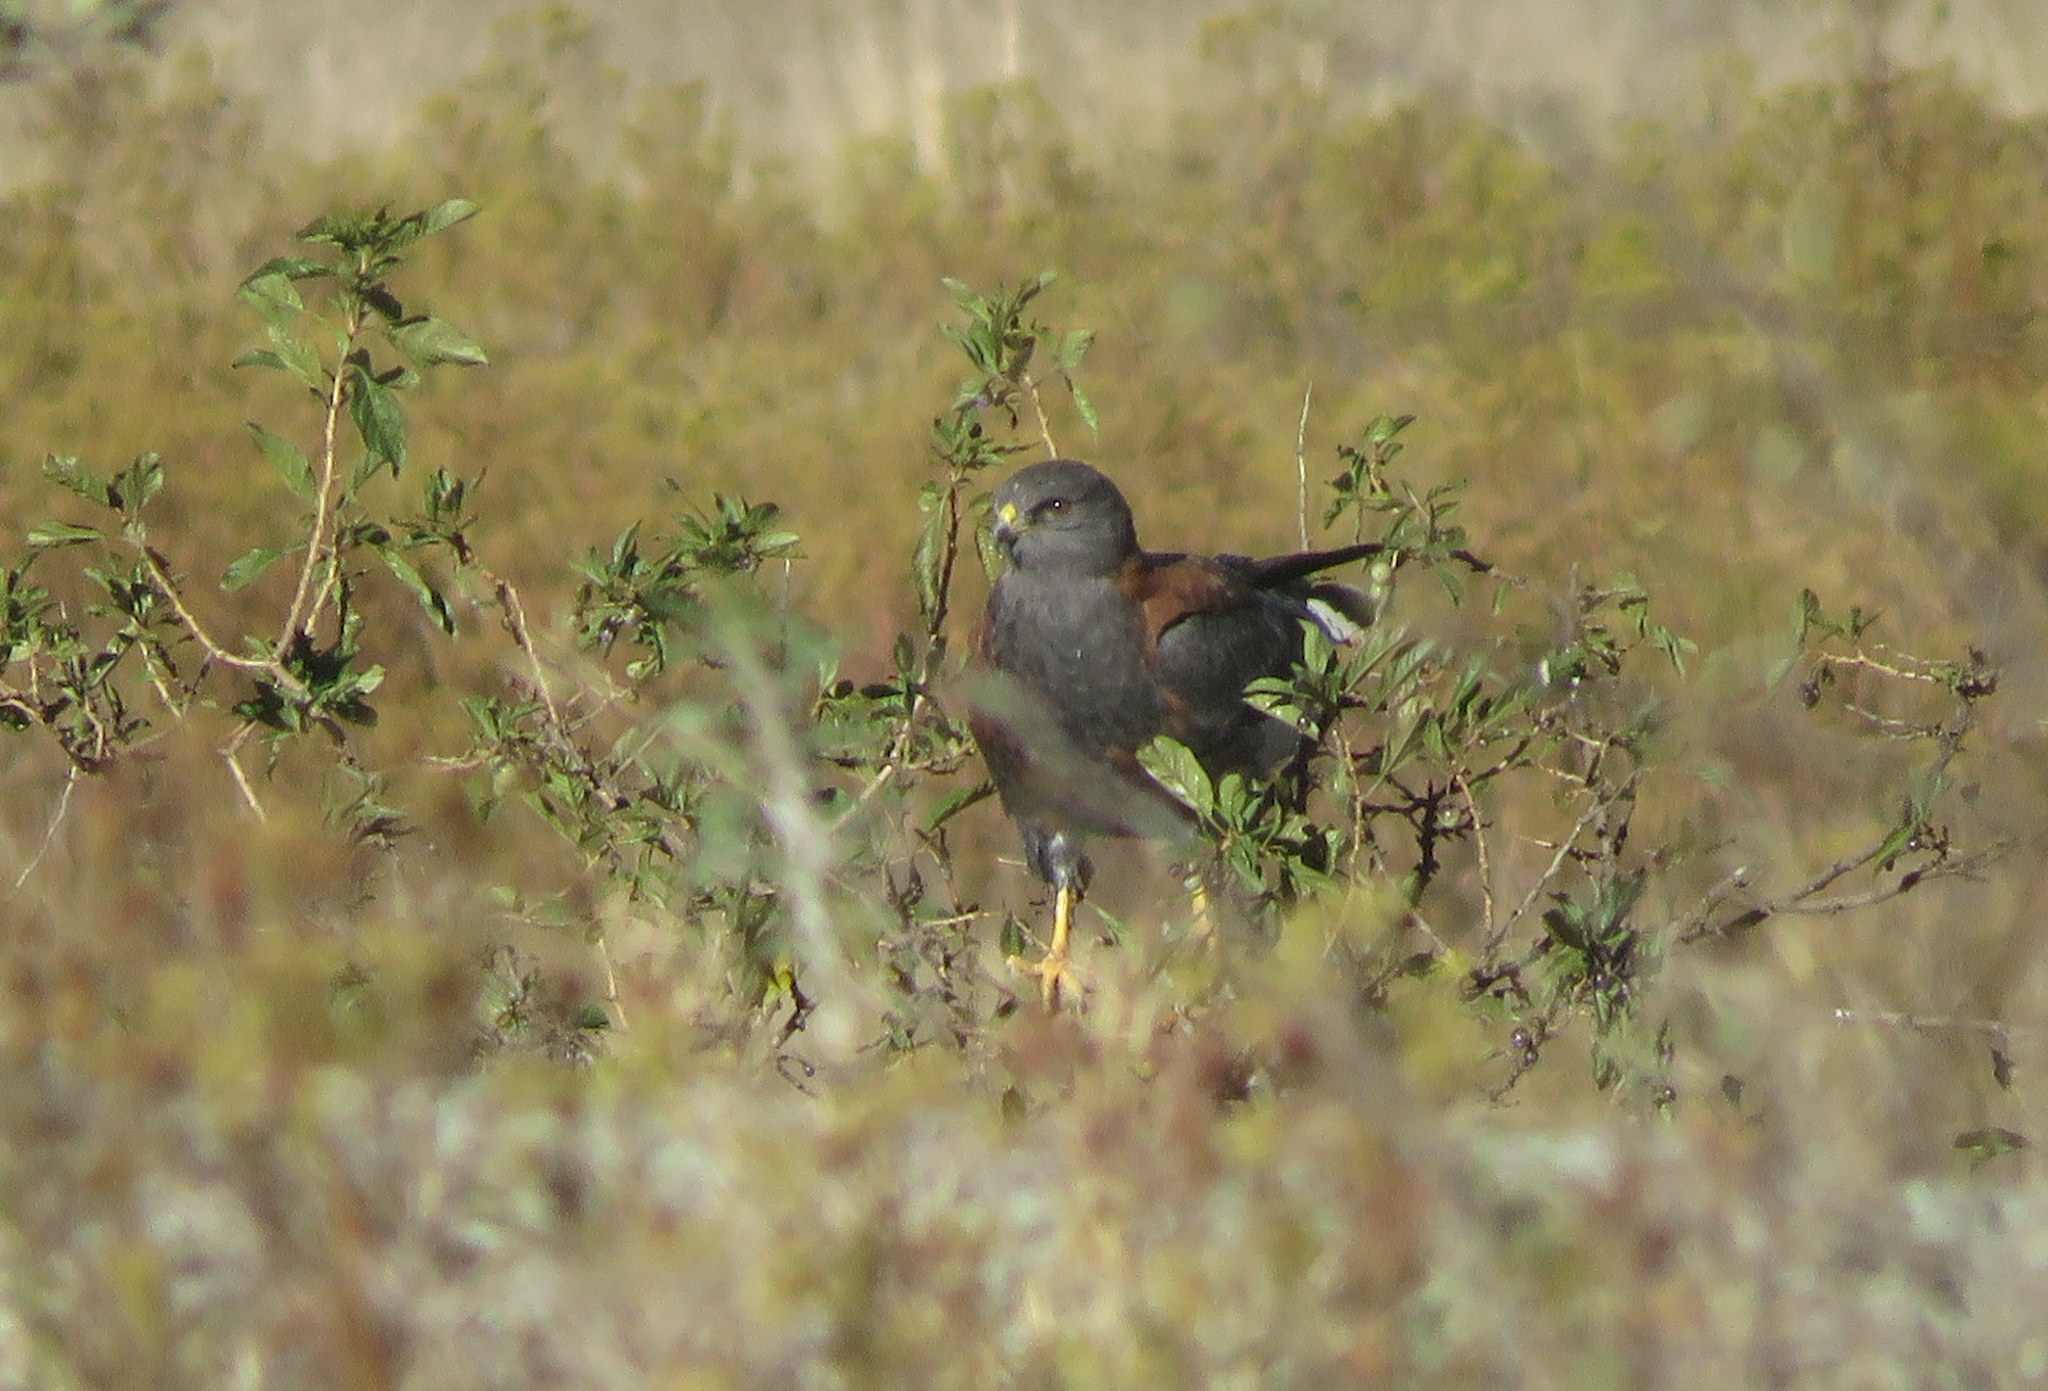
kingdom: Animalia
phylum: Chordata
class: Aves
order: Accipitriformes
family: Accipitridae
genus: Buteo
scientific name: Buteo polyosoma
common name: Variable hawk
